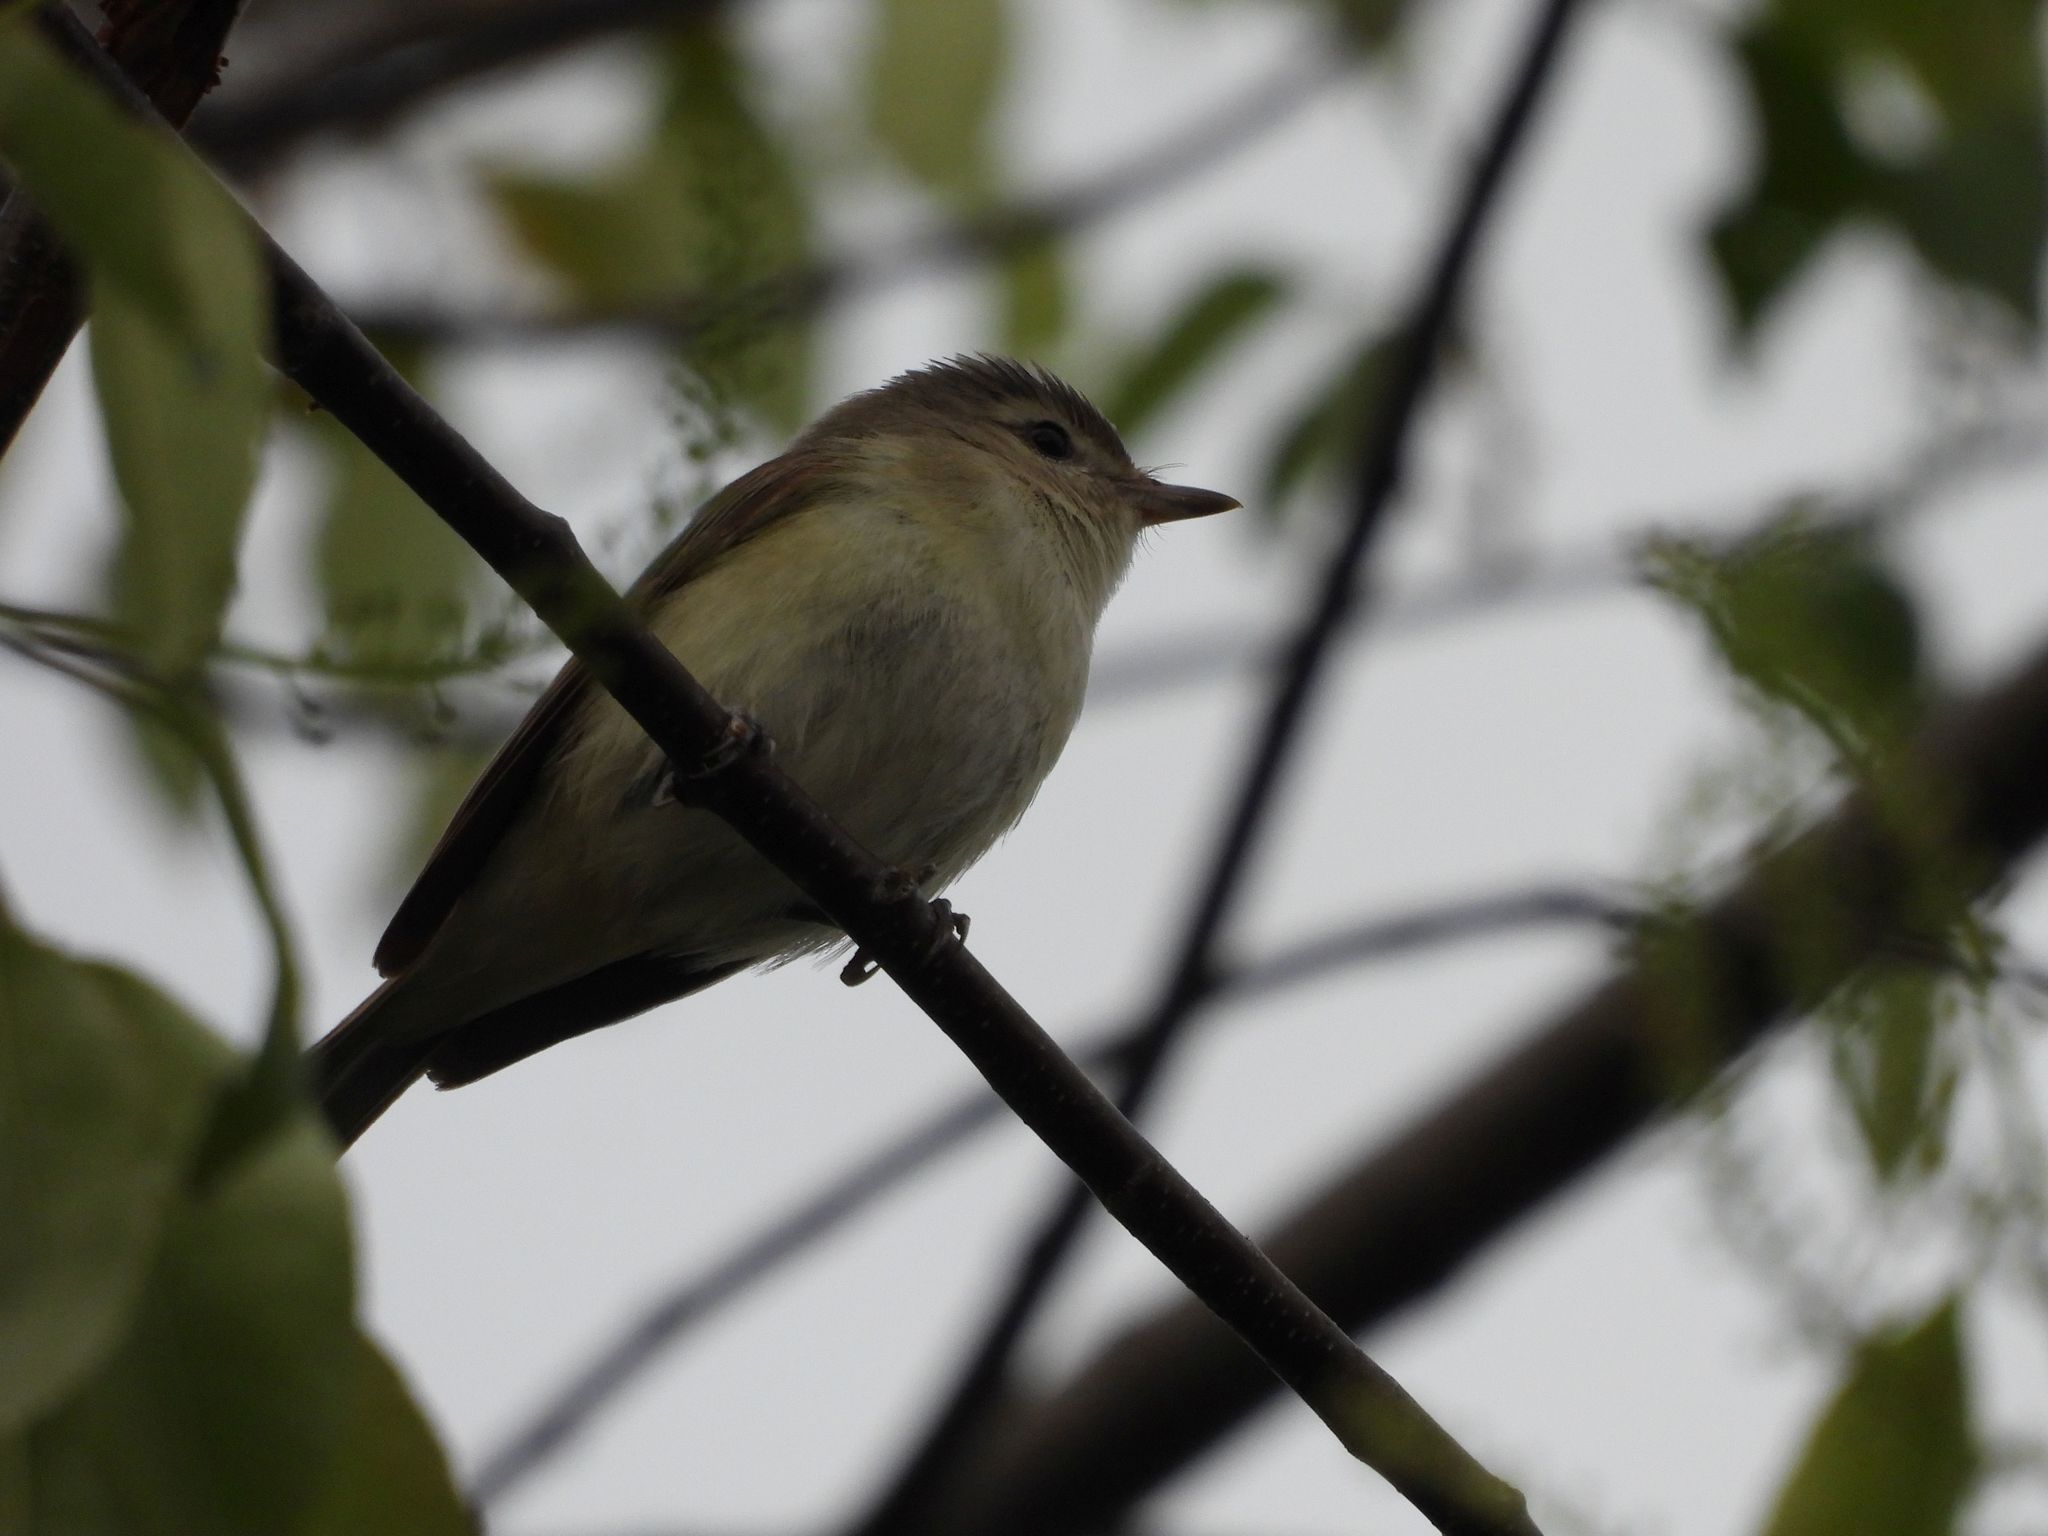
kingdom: Animalia
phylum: Chordata
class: Aves
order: Passeriformes
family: Vireonidae
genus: Vireo
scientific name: Vireo gilvus
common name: Warbling vireo
